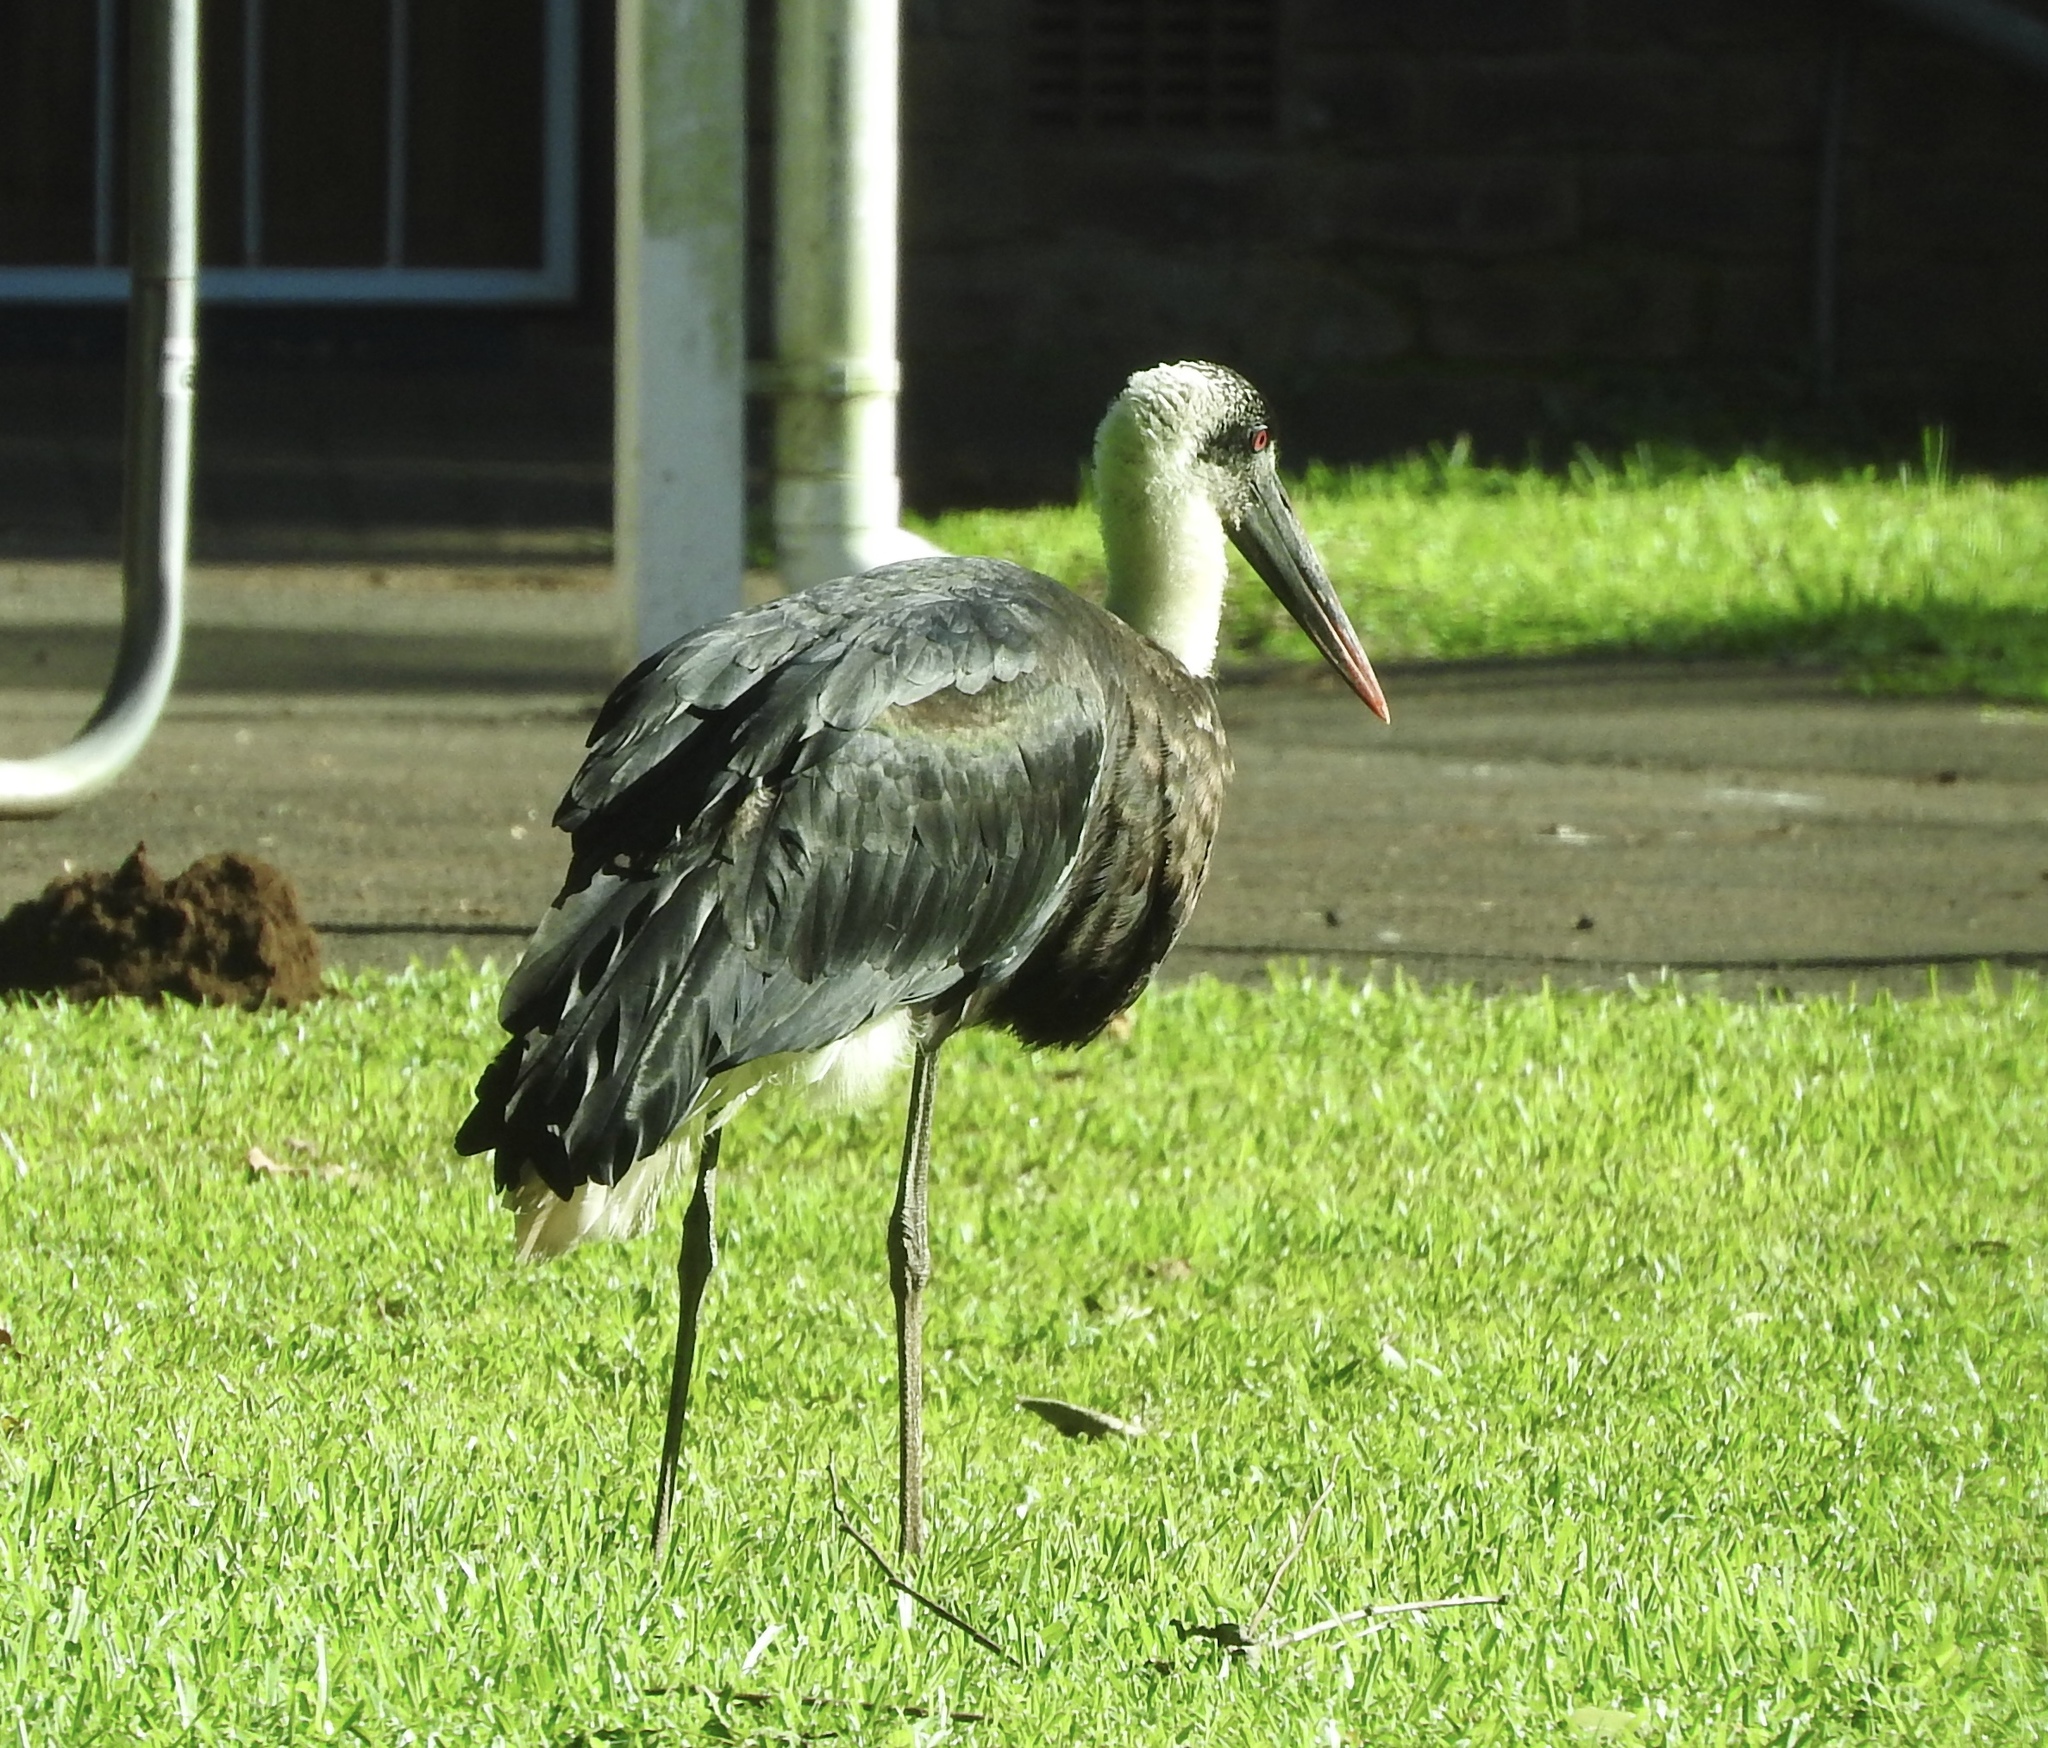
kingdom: Animalia
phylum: Chordata
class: Aves
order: Ciconiiformes
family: Ciconiidae
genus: Ciconia
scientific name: Ciconia microscelis
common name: African woollyneck
